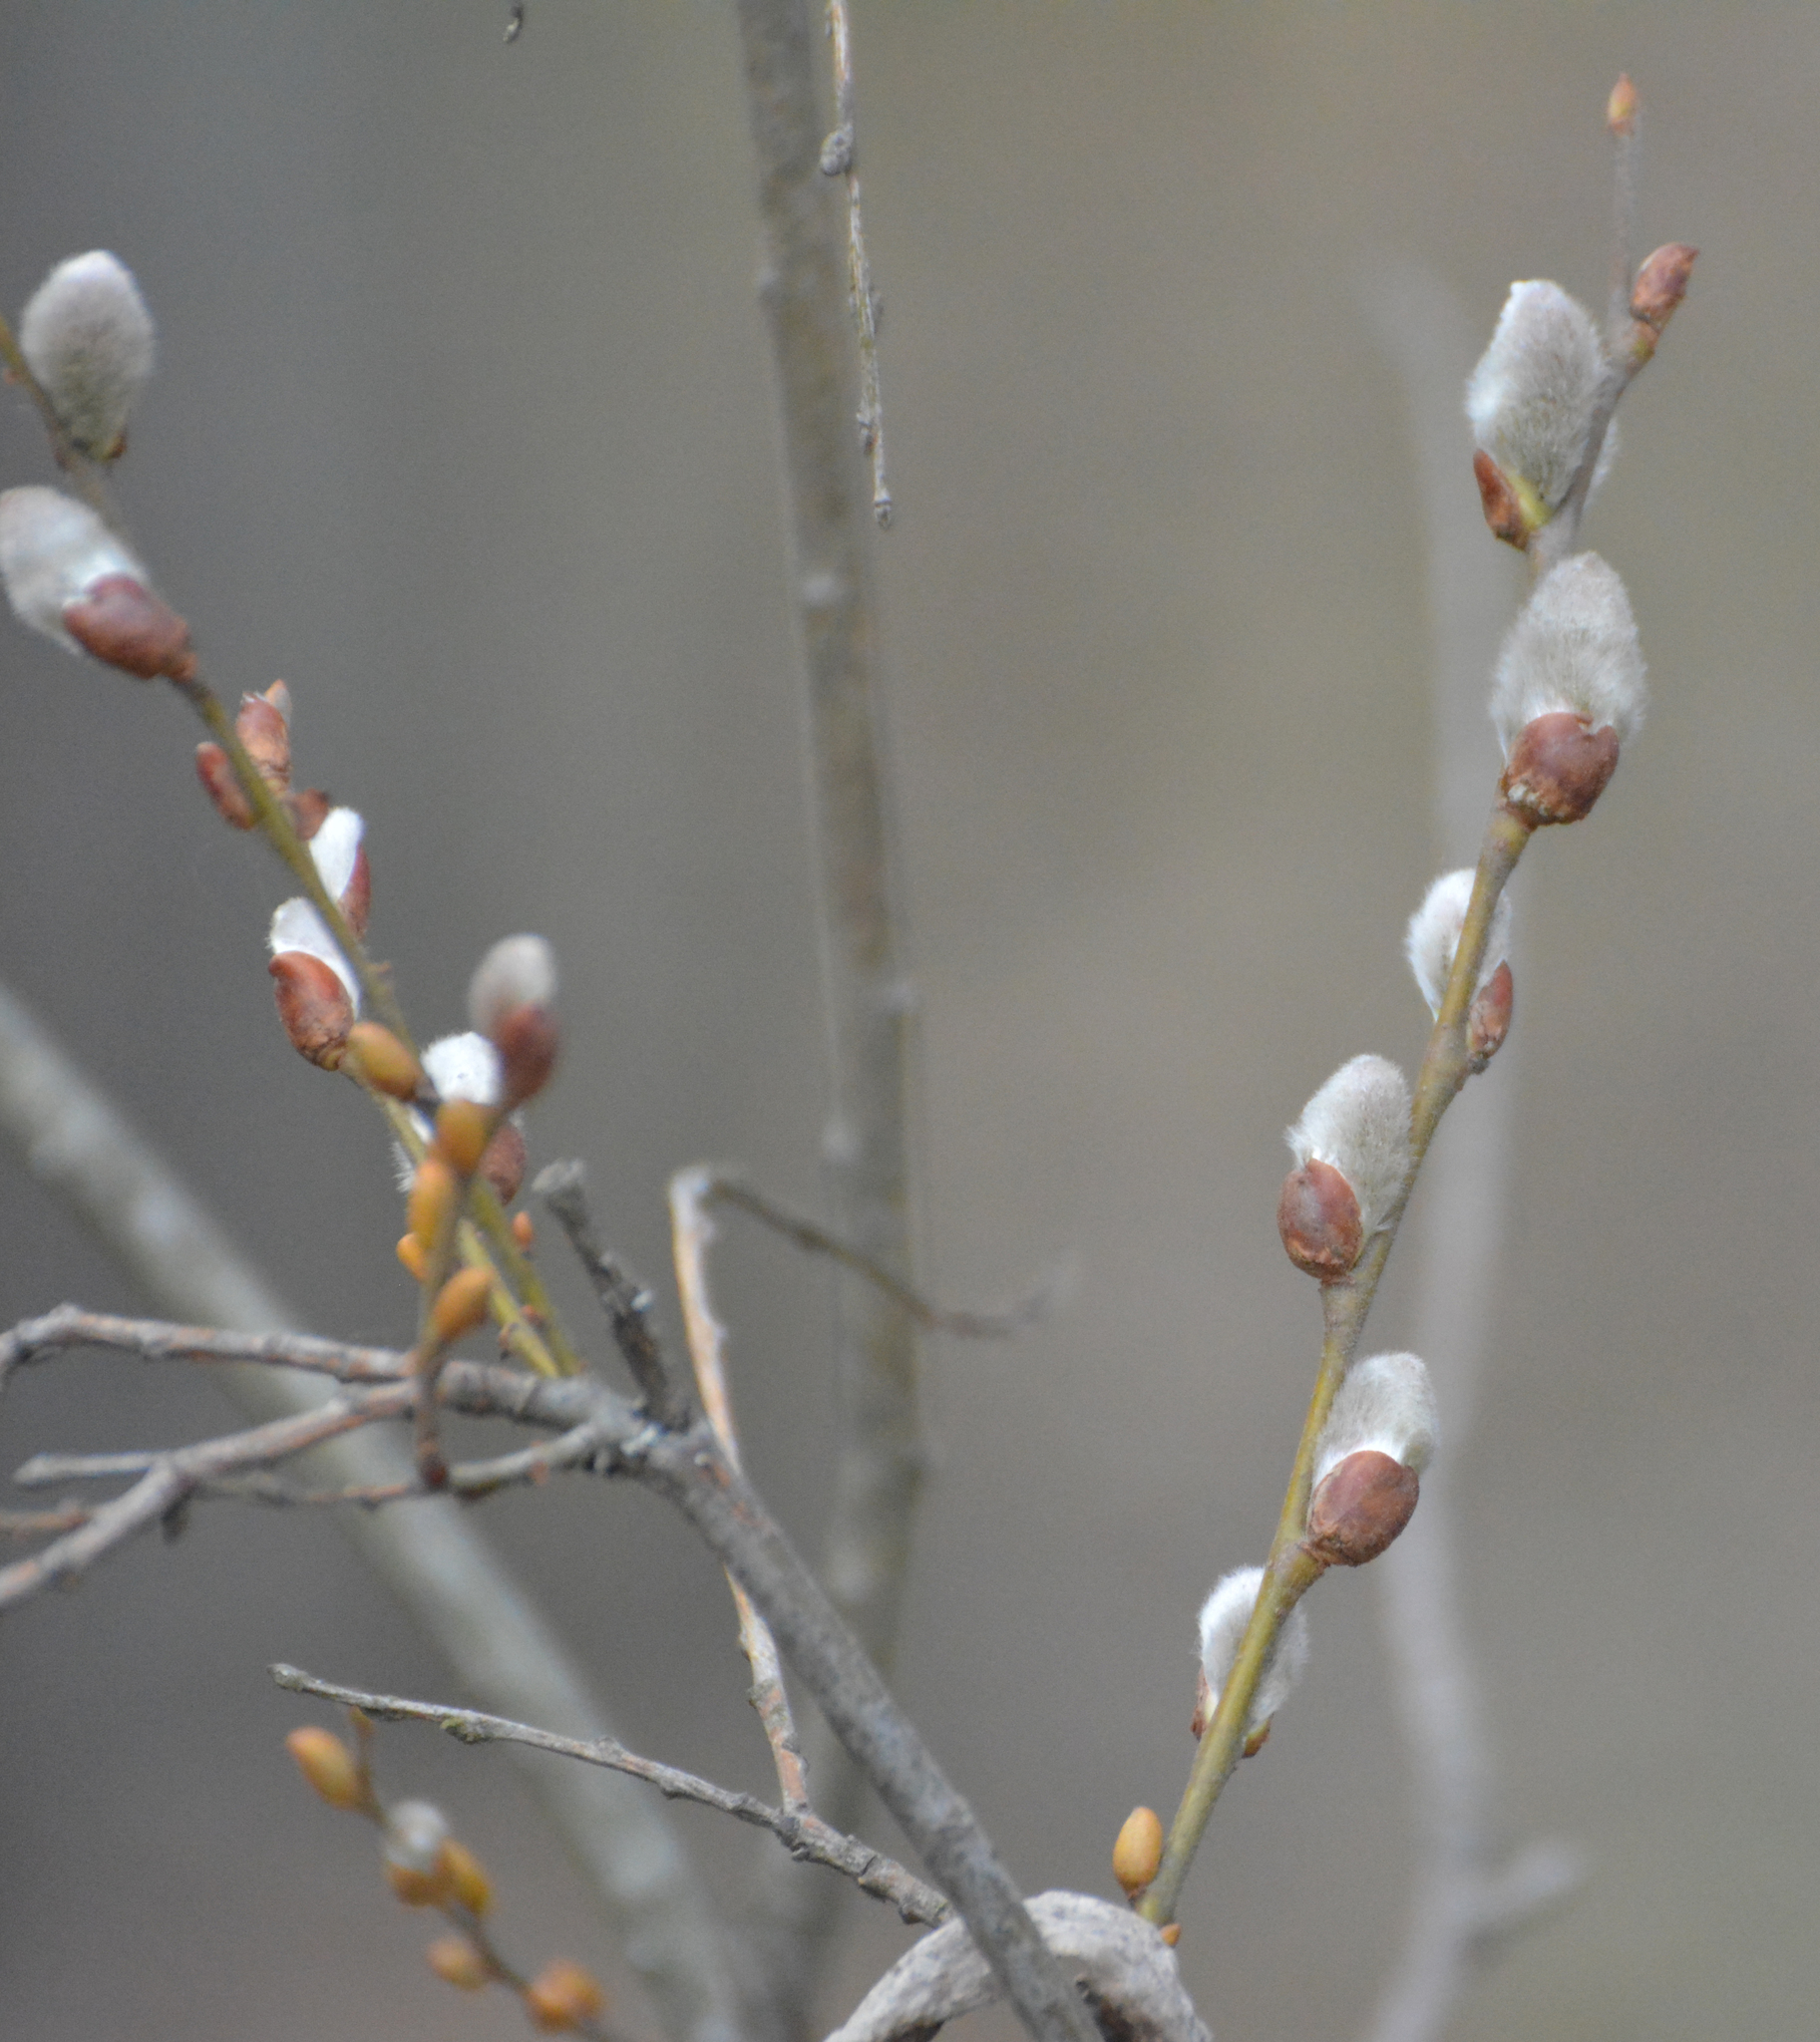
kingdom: Plantae
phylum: Tracheophyta
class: Magnoliopsida
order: Malpighiales
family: Salicaceae
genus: Salix
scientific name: Salix caprea
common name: Goat willow
